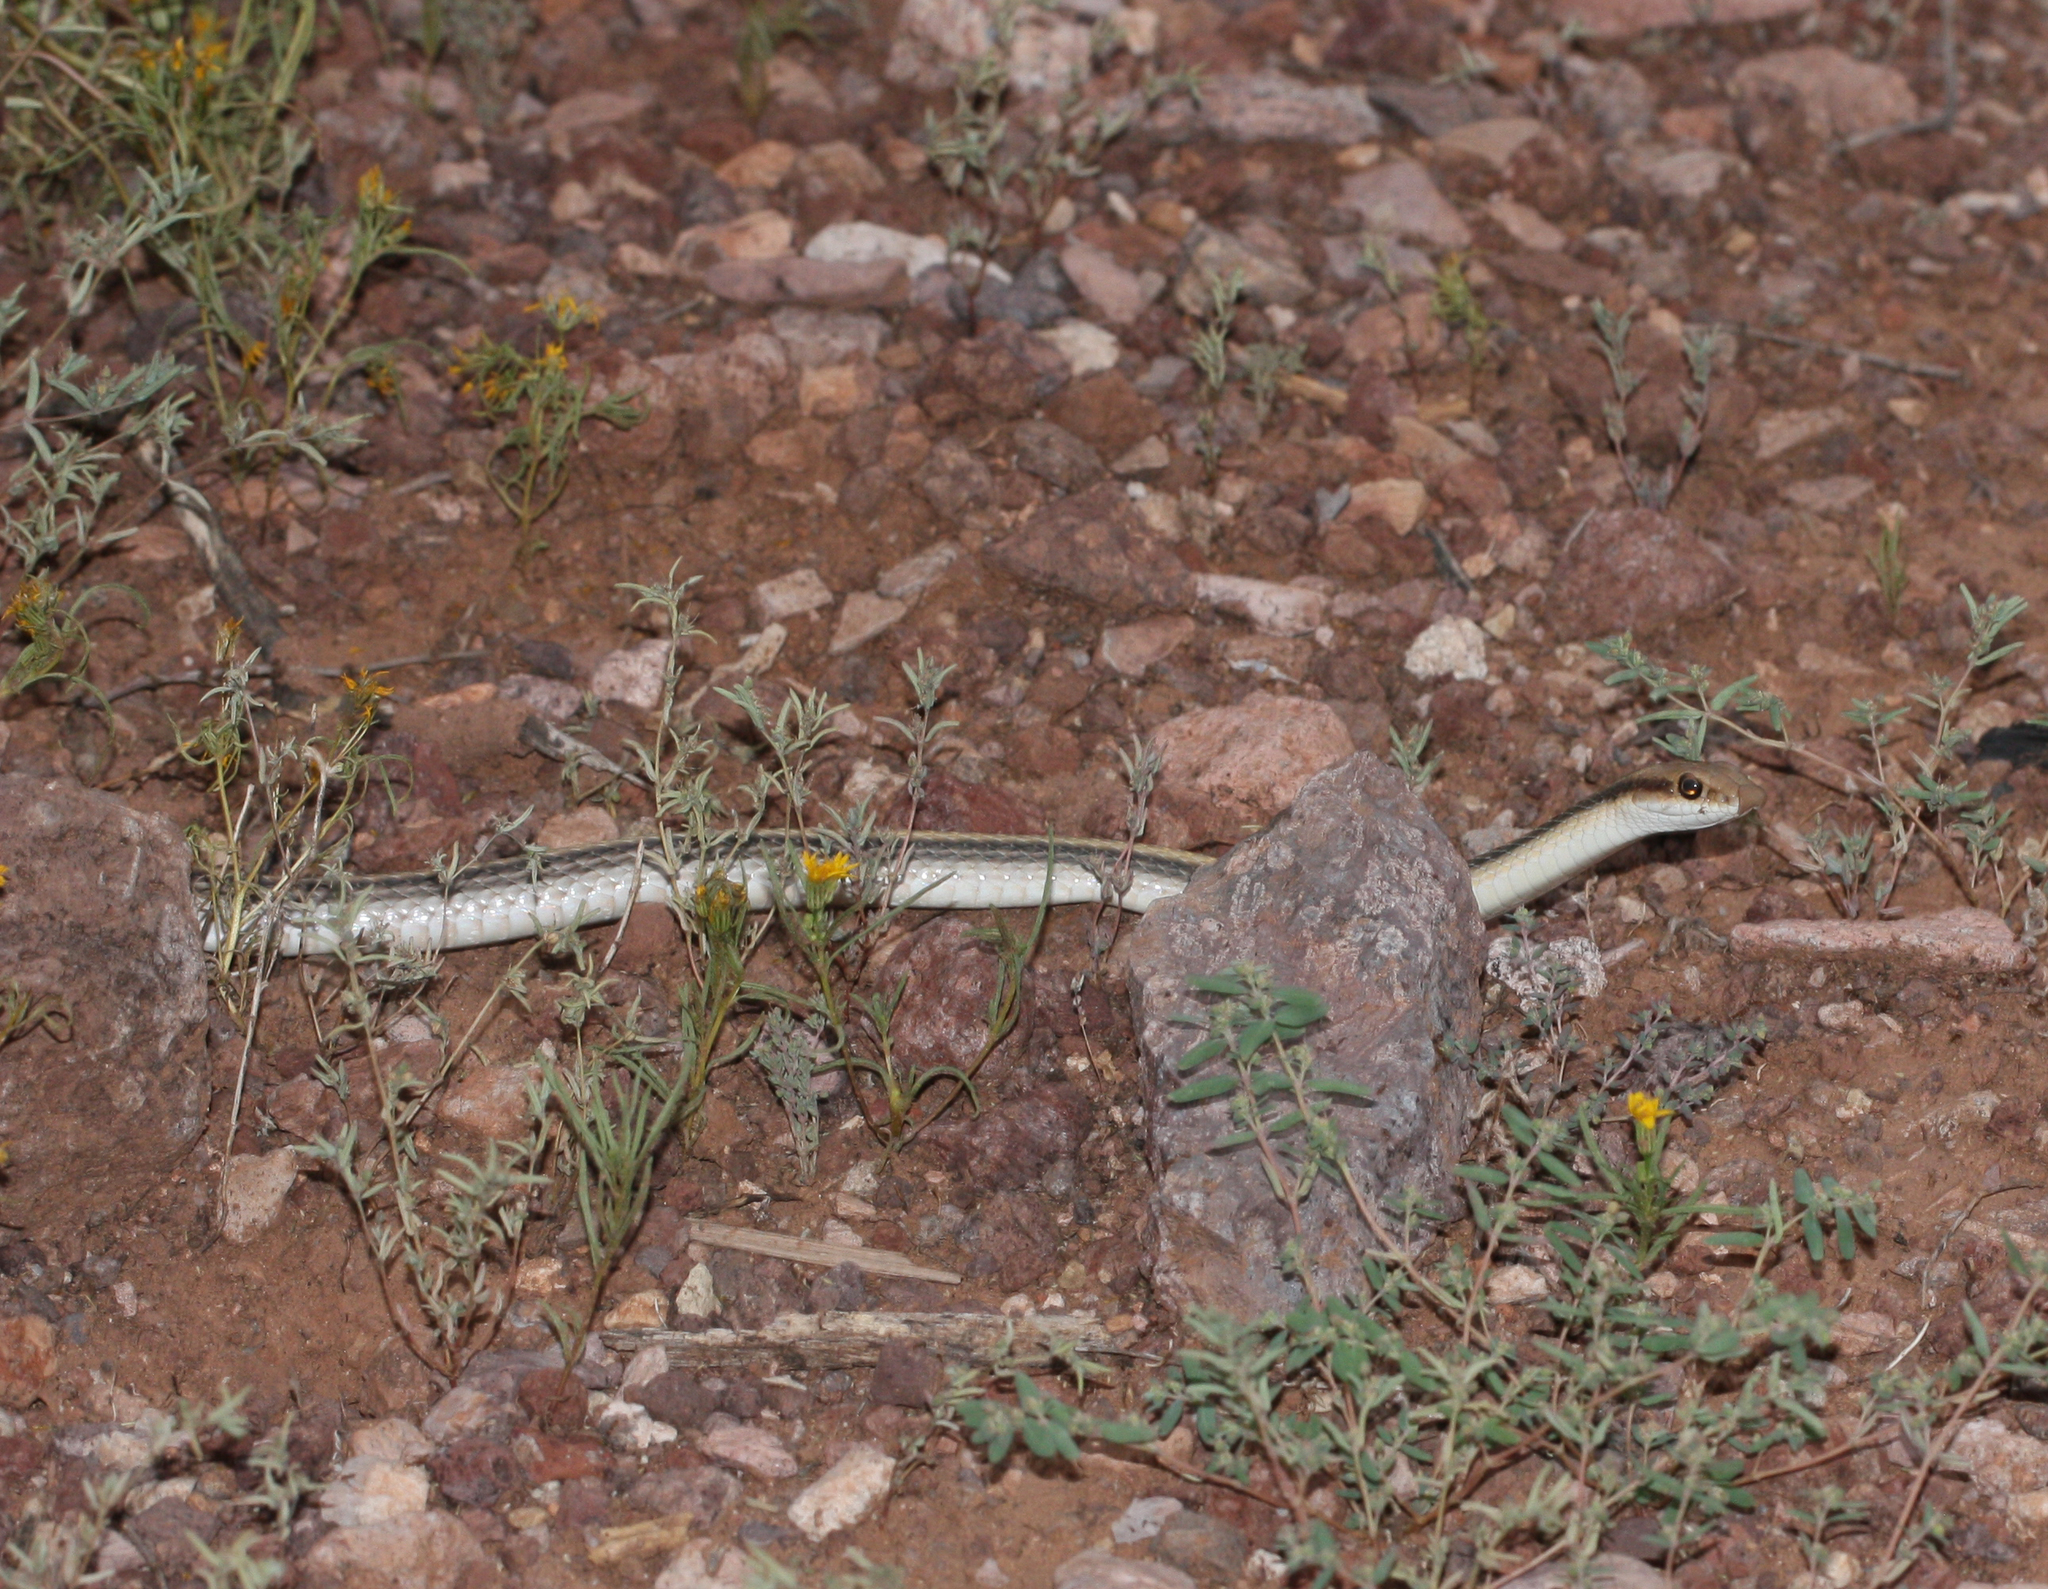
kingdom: Animalia
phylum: Chordata
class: Squamata
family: Colubridae
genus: Salvadora
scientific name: Salvadora hexalepis
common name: Western patchnose snake
